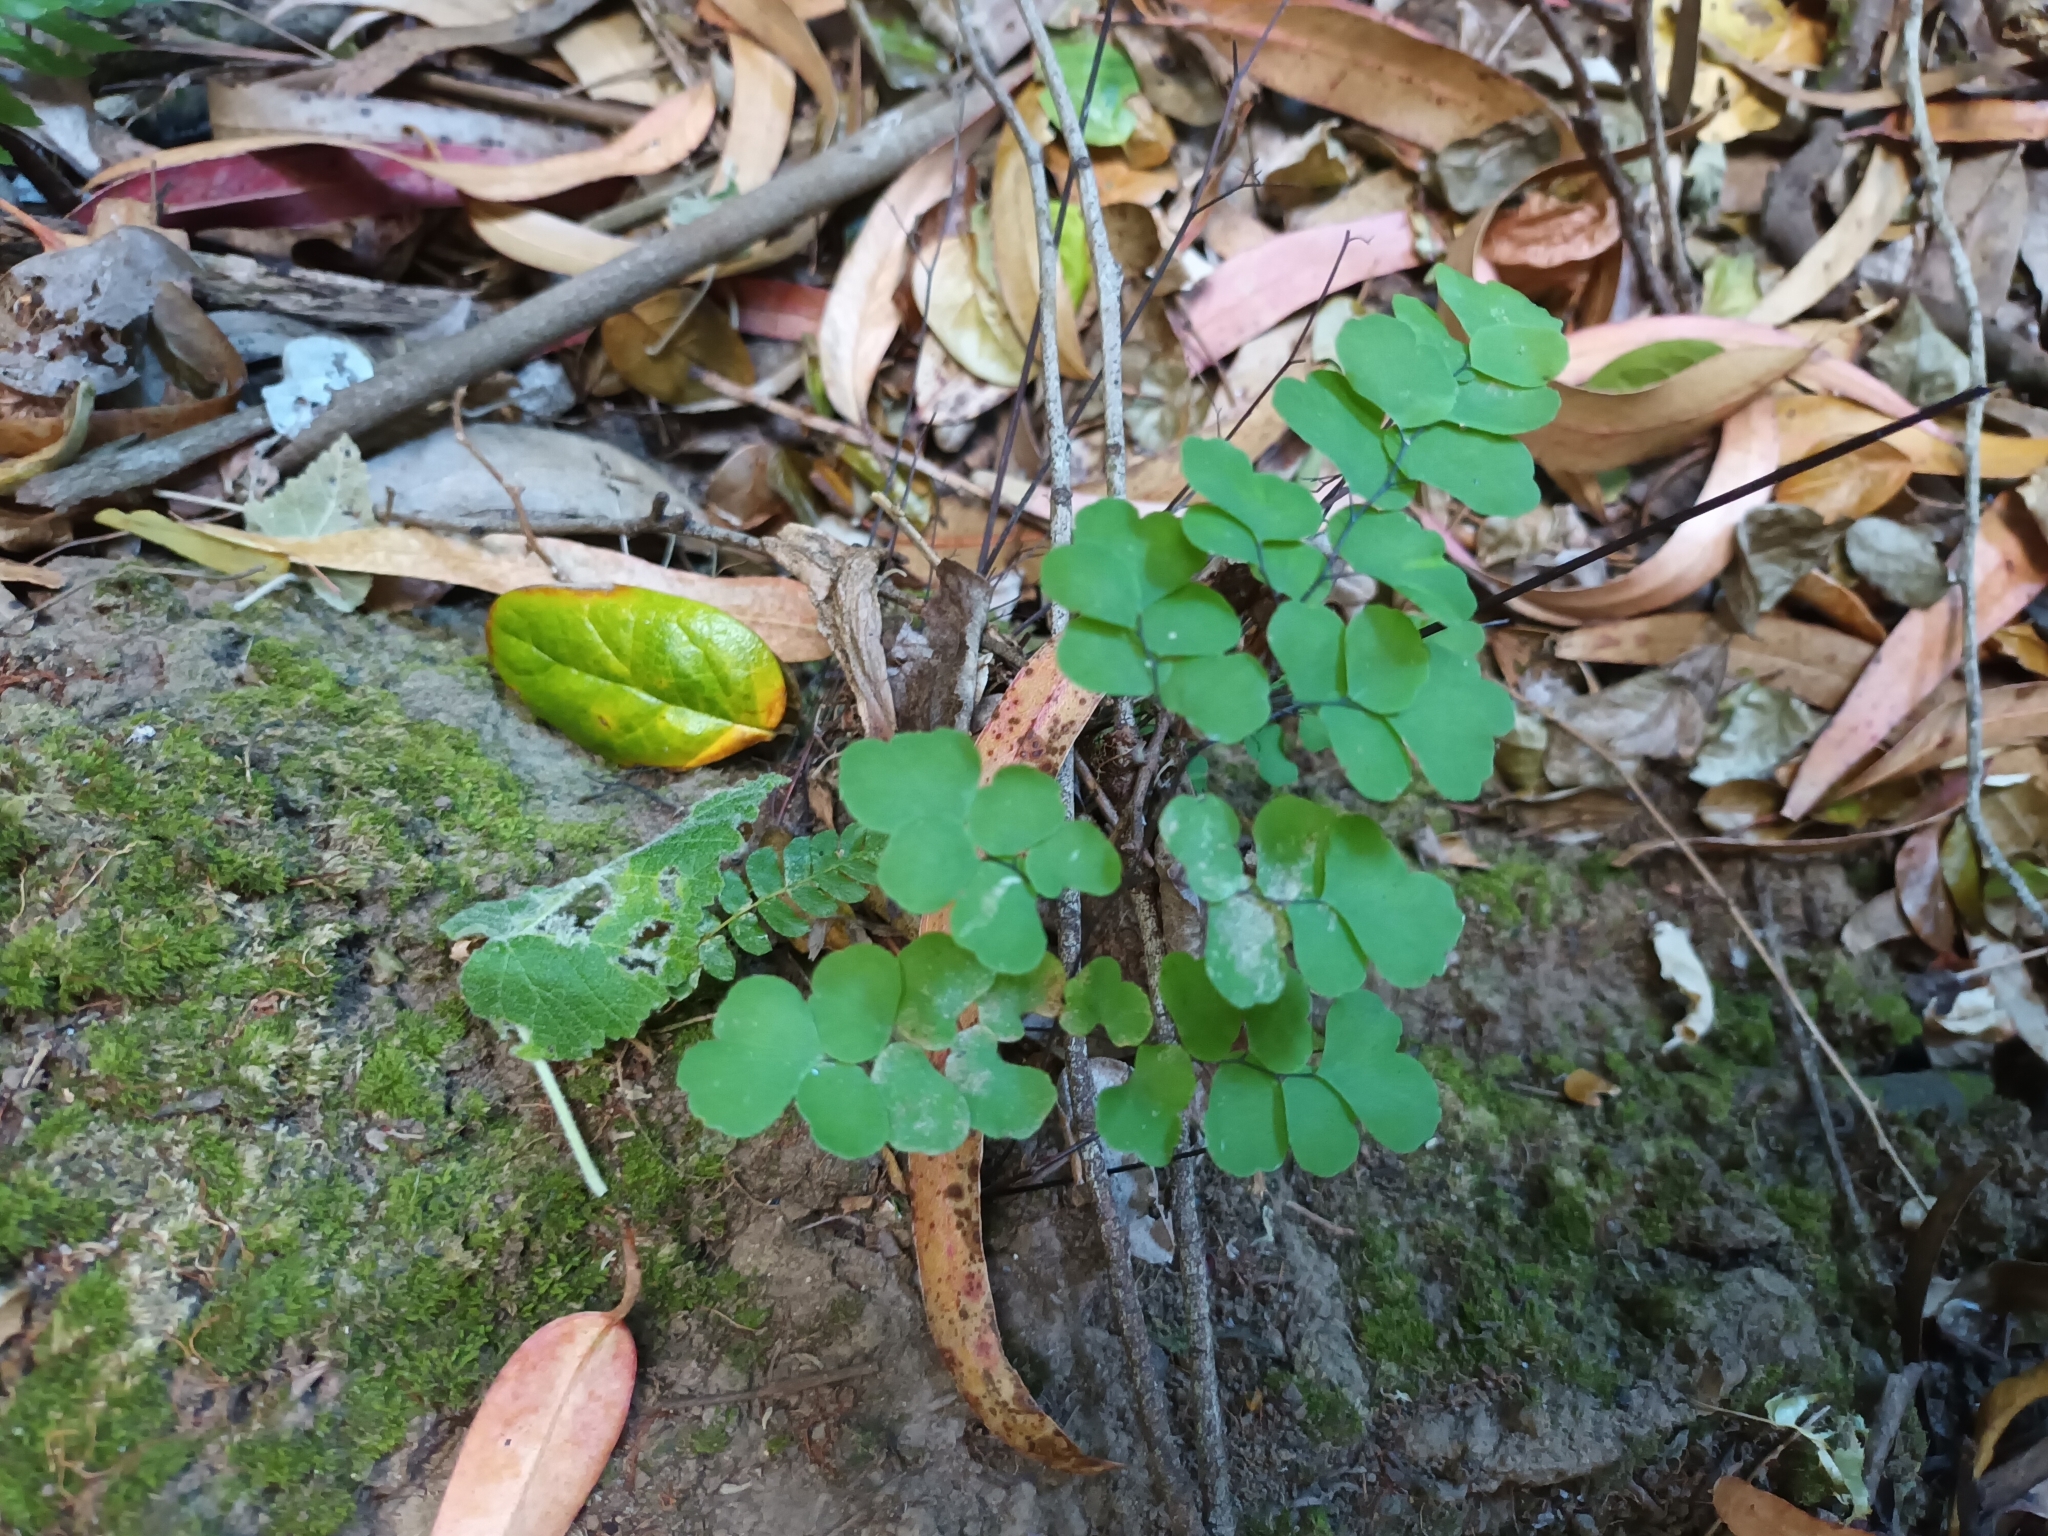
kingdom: Plantae
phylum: Tracheophyta
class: Polypodiopsida
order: Polypodiales
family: Pteridaceae
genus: Adiantum
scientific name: Adiantum chilense
